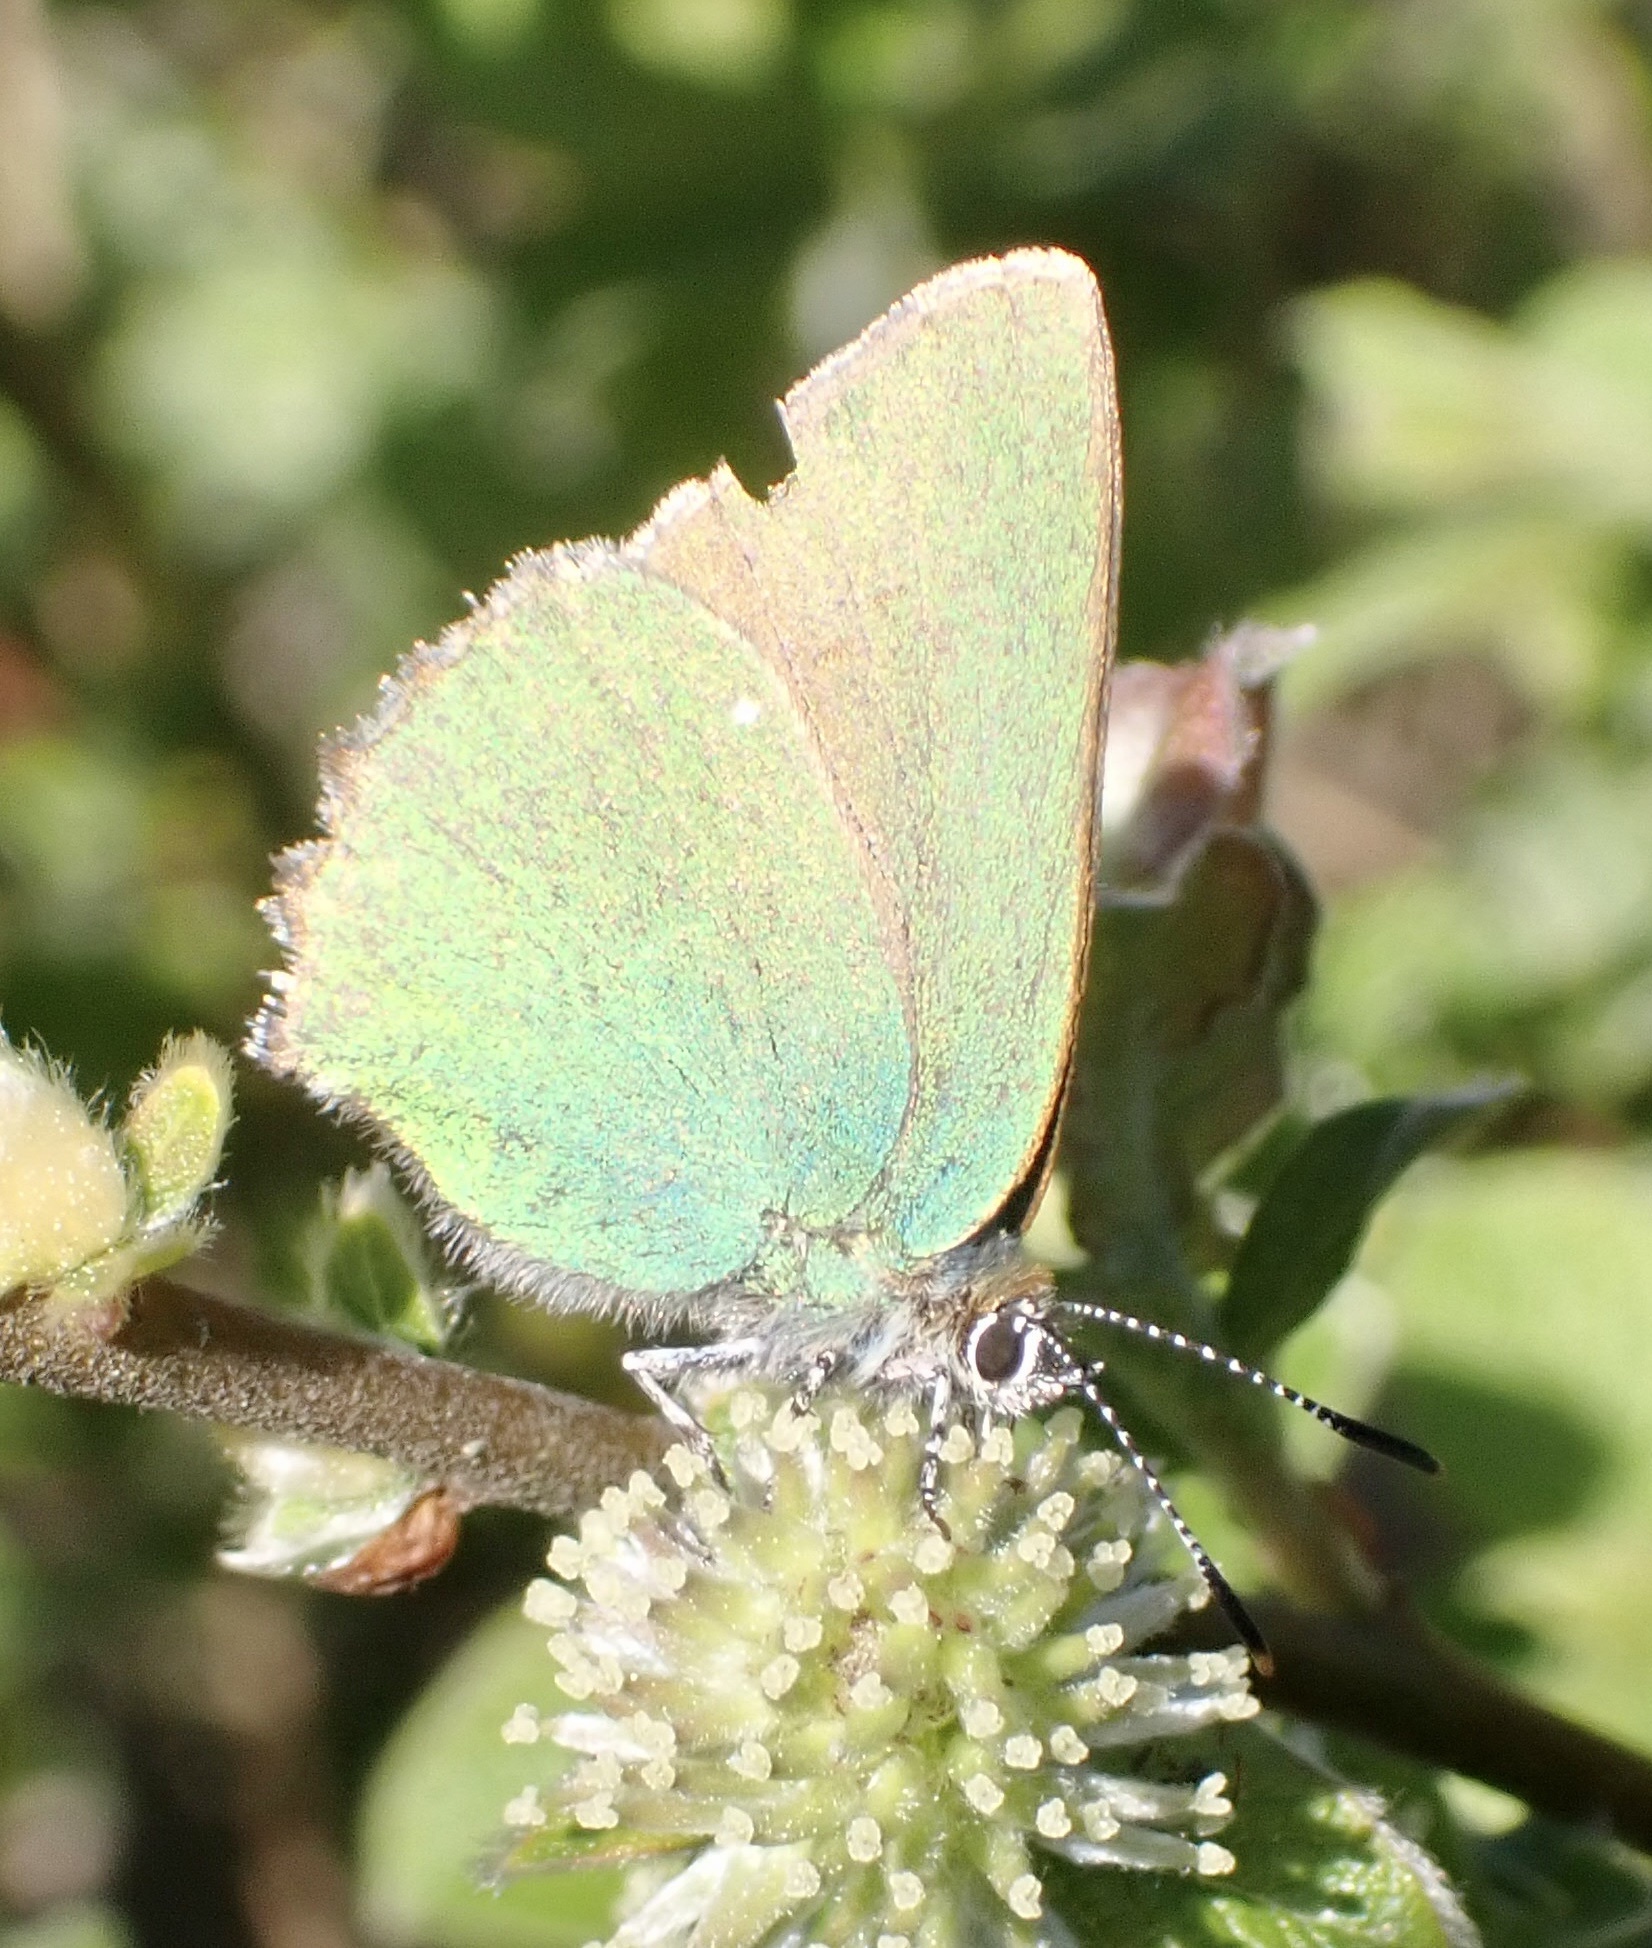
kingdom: Animalia
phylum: Arthropoda
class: Insecta
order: Lepidoptera
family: Lycaenidae
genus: Callophrys
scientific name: Callophrys rubi
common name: Green hairstreak
